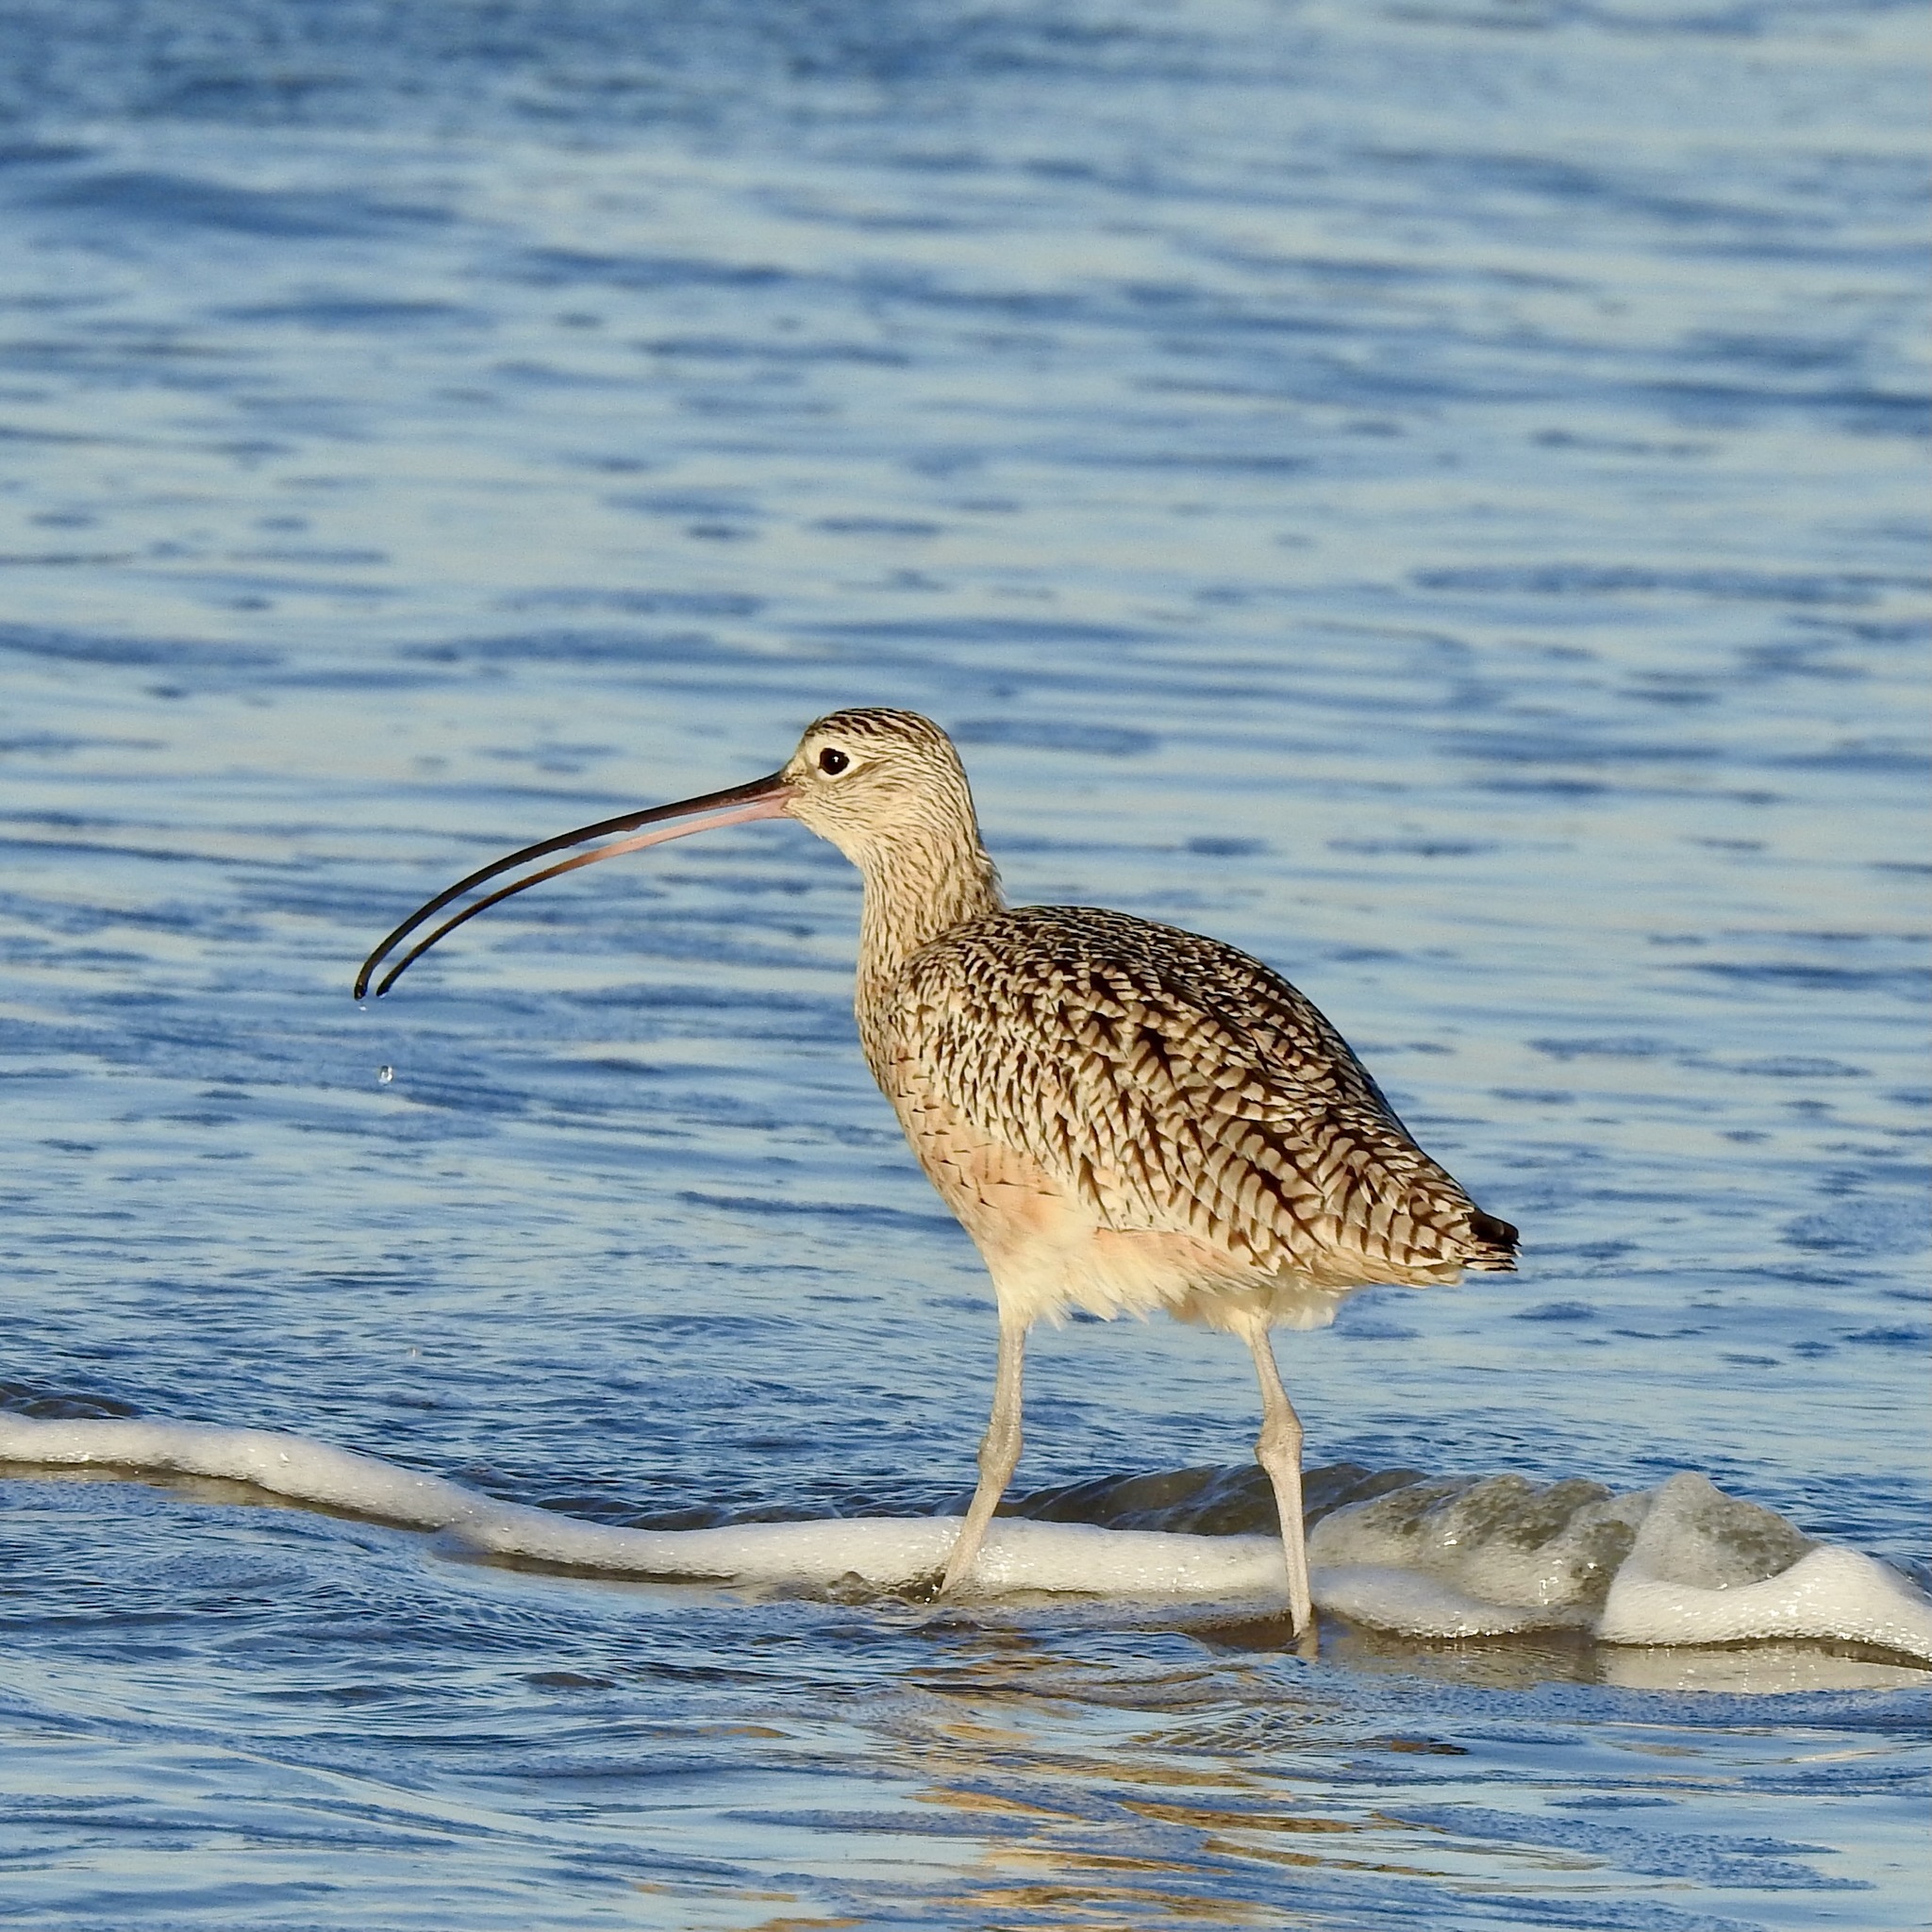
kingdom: Animalia
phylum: Chordata
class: Aves
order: Charadriiformes
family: Scolopacidae
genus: Numenius
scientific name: Numenius americanus
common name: Long-billed curlew
